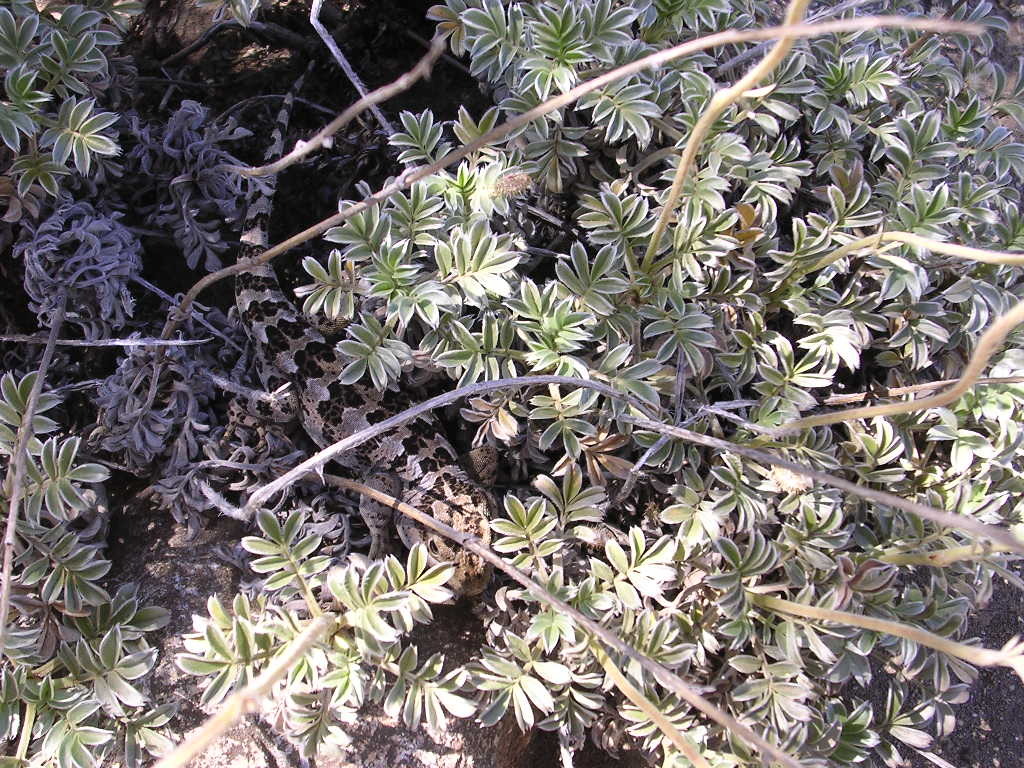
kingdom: Animalia
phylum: Chordata
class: Squamata
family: Leiosauridae
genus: Diplolaemus
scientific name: Diplolaemus sexcinctus
